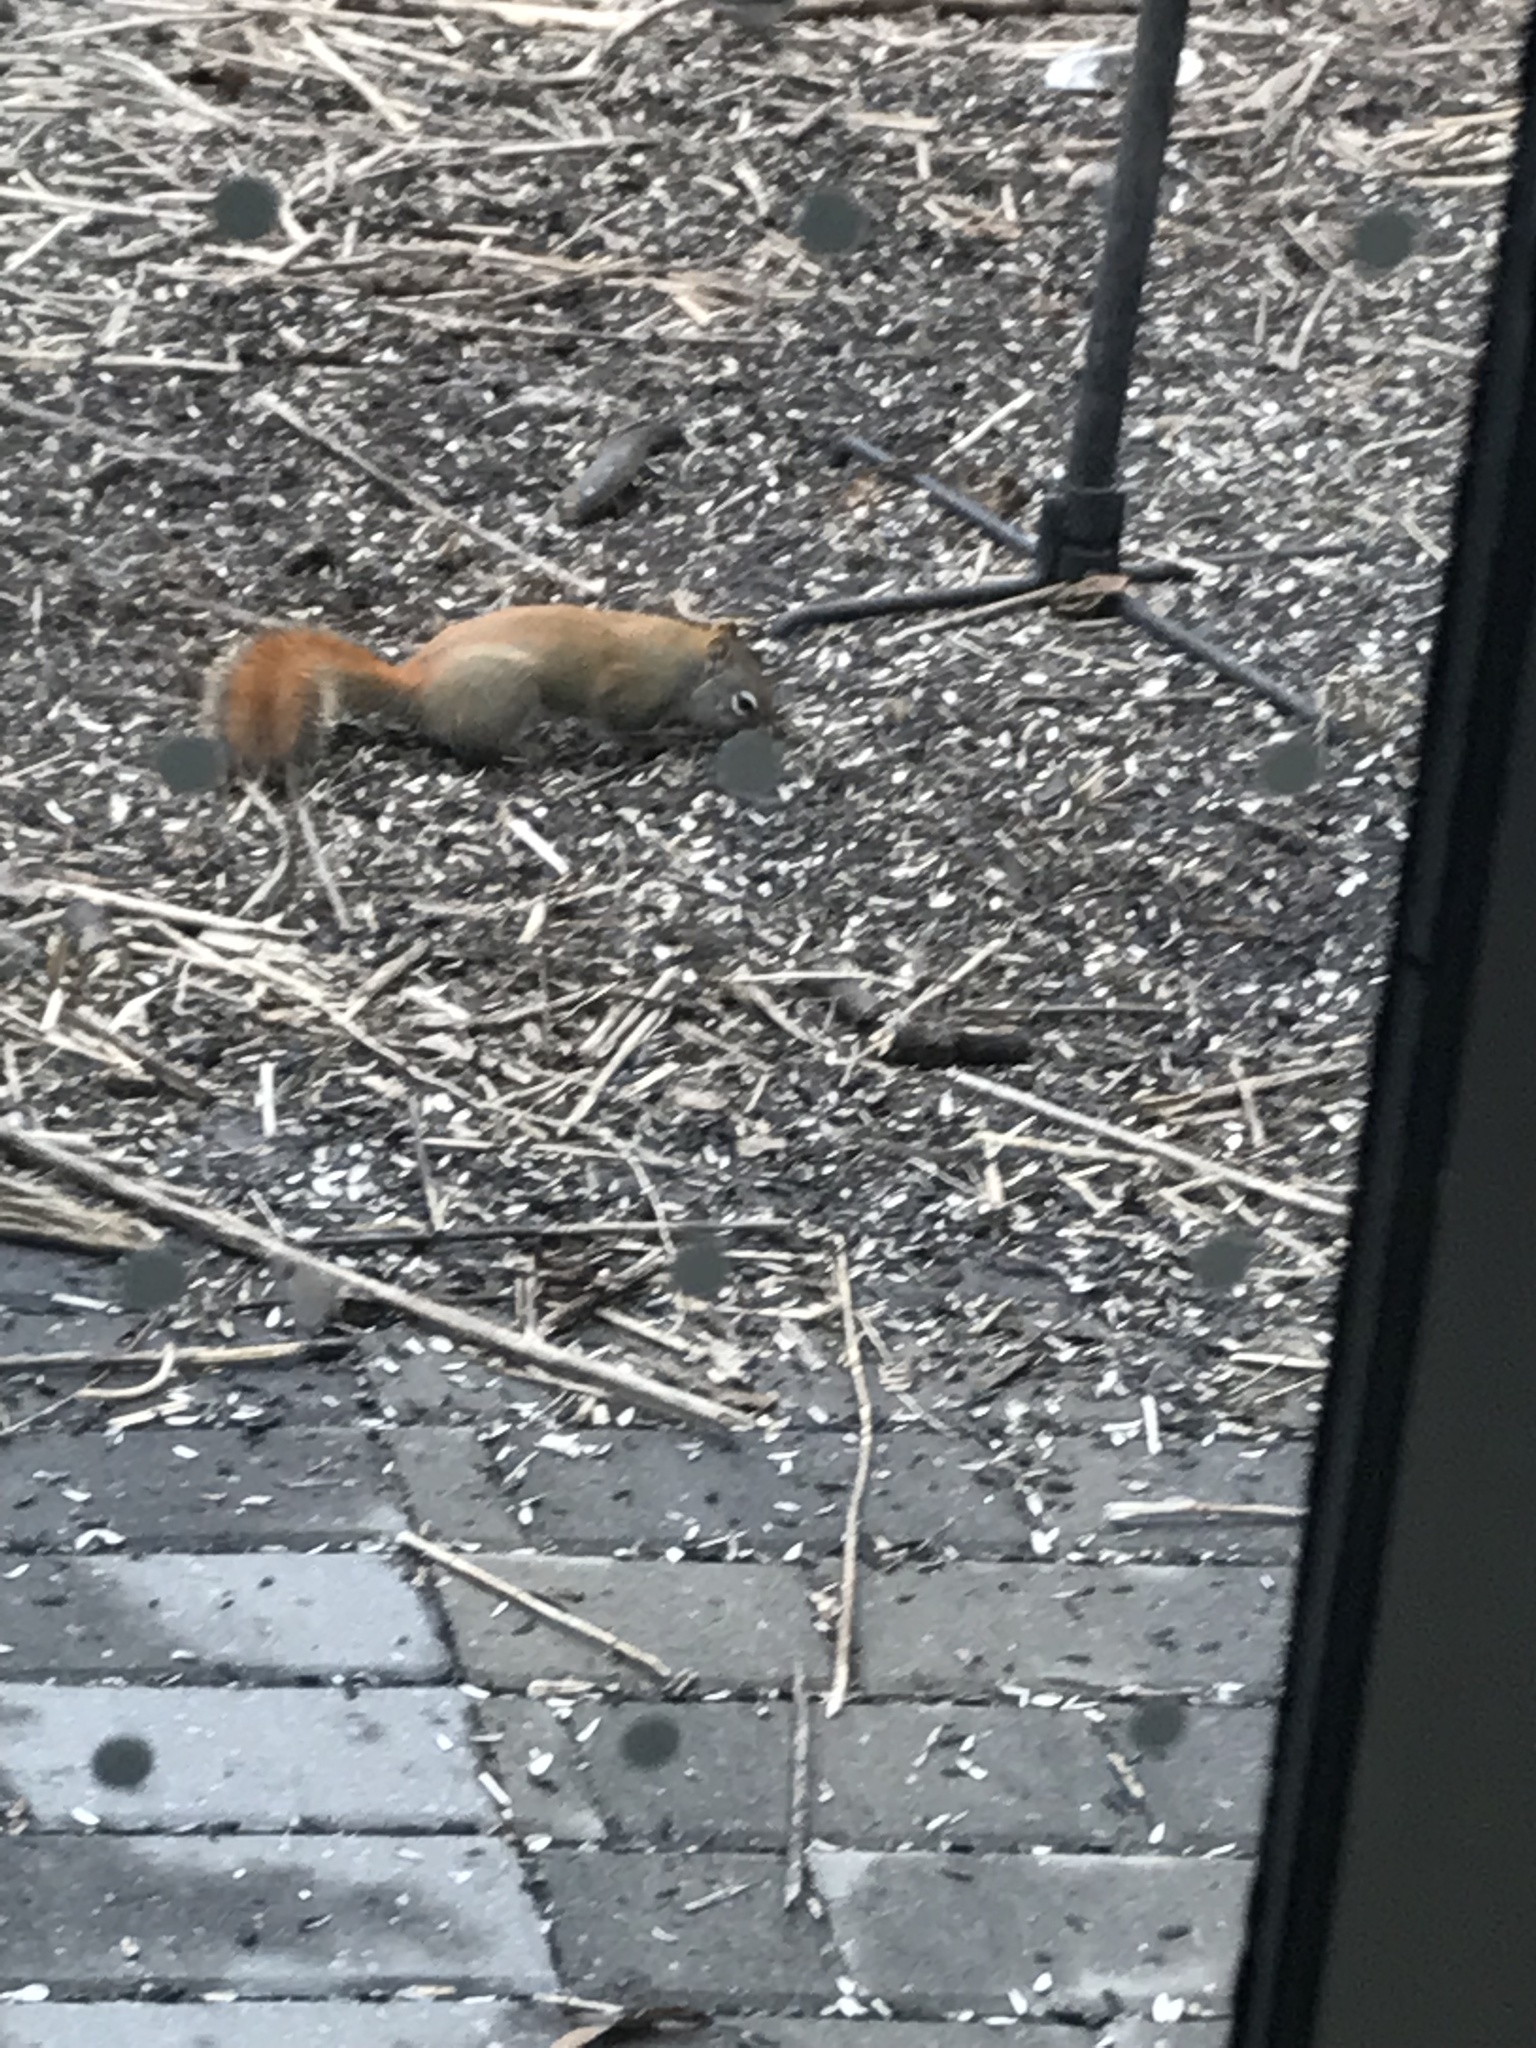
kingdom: Animalia
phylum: Chordata
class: Mammalia
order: Rodentia
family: Sciuridae
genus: Tamiasciurus
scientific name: Tamiasciurus hudsonicus
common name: Red squirrel
